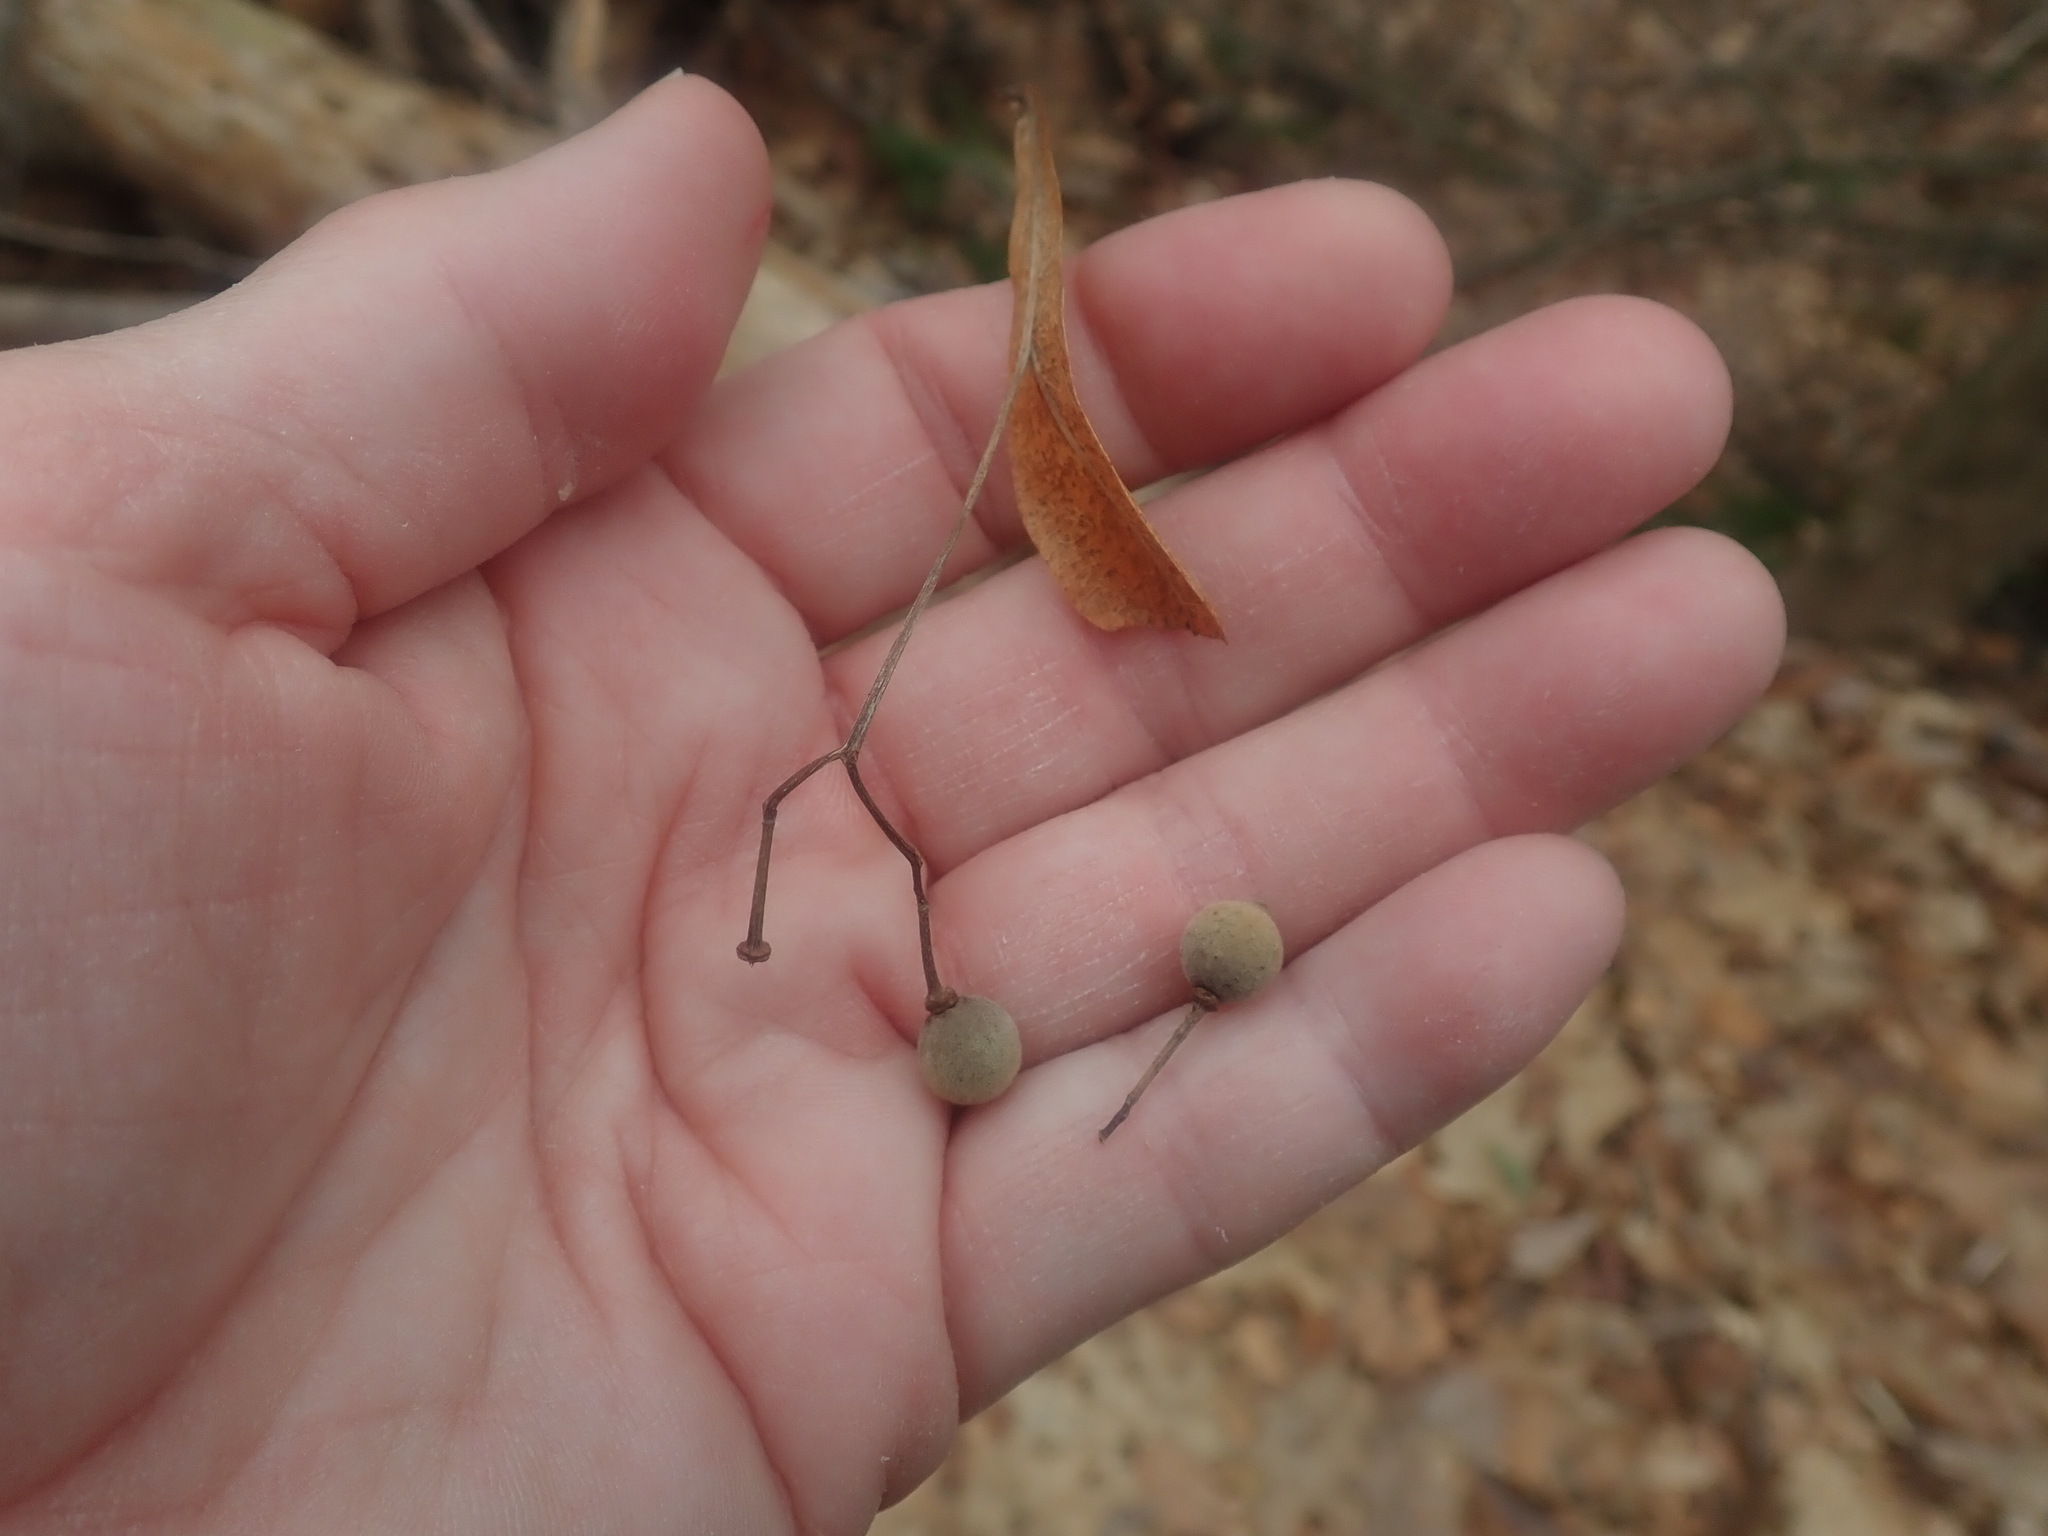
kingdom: Plantae
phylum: Tracheophyta
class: Magnoliopsida
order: Malvales
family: Malvaceae
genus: Tilia
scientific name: Tilia americana
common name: Basswood
